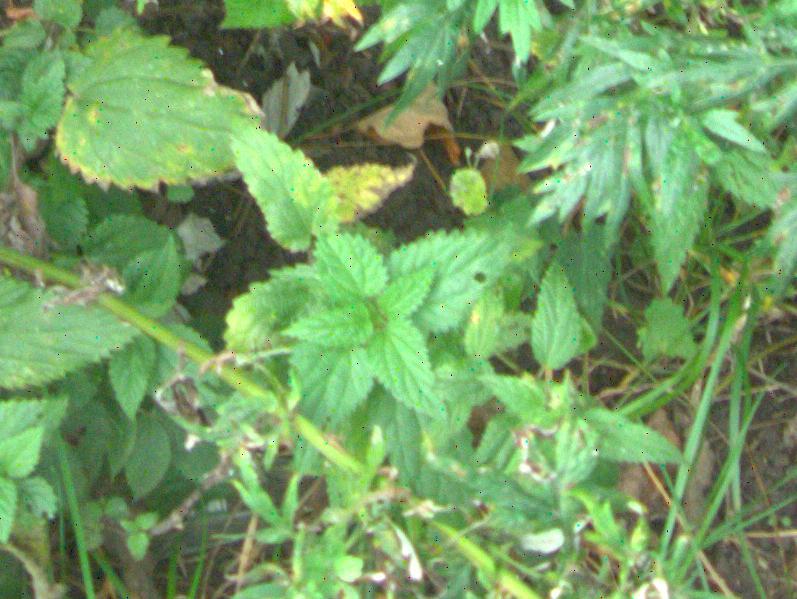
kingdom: Plantae
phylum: Tracheophyta
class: Magnoliopsida
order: Rosales
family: Urticaceae
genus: Urtica
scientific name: Urtica dioica
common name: Common nettle
